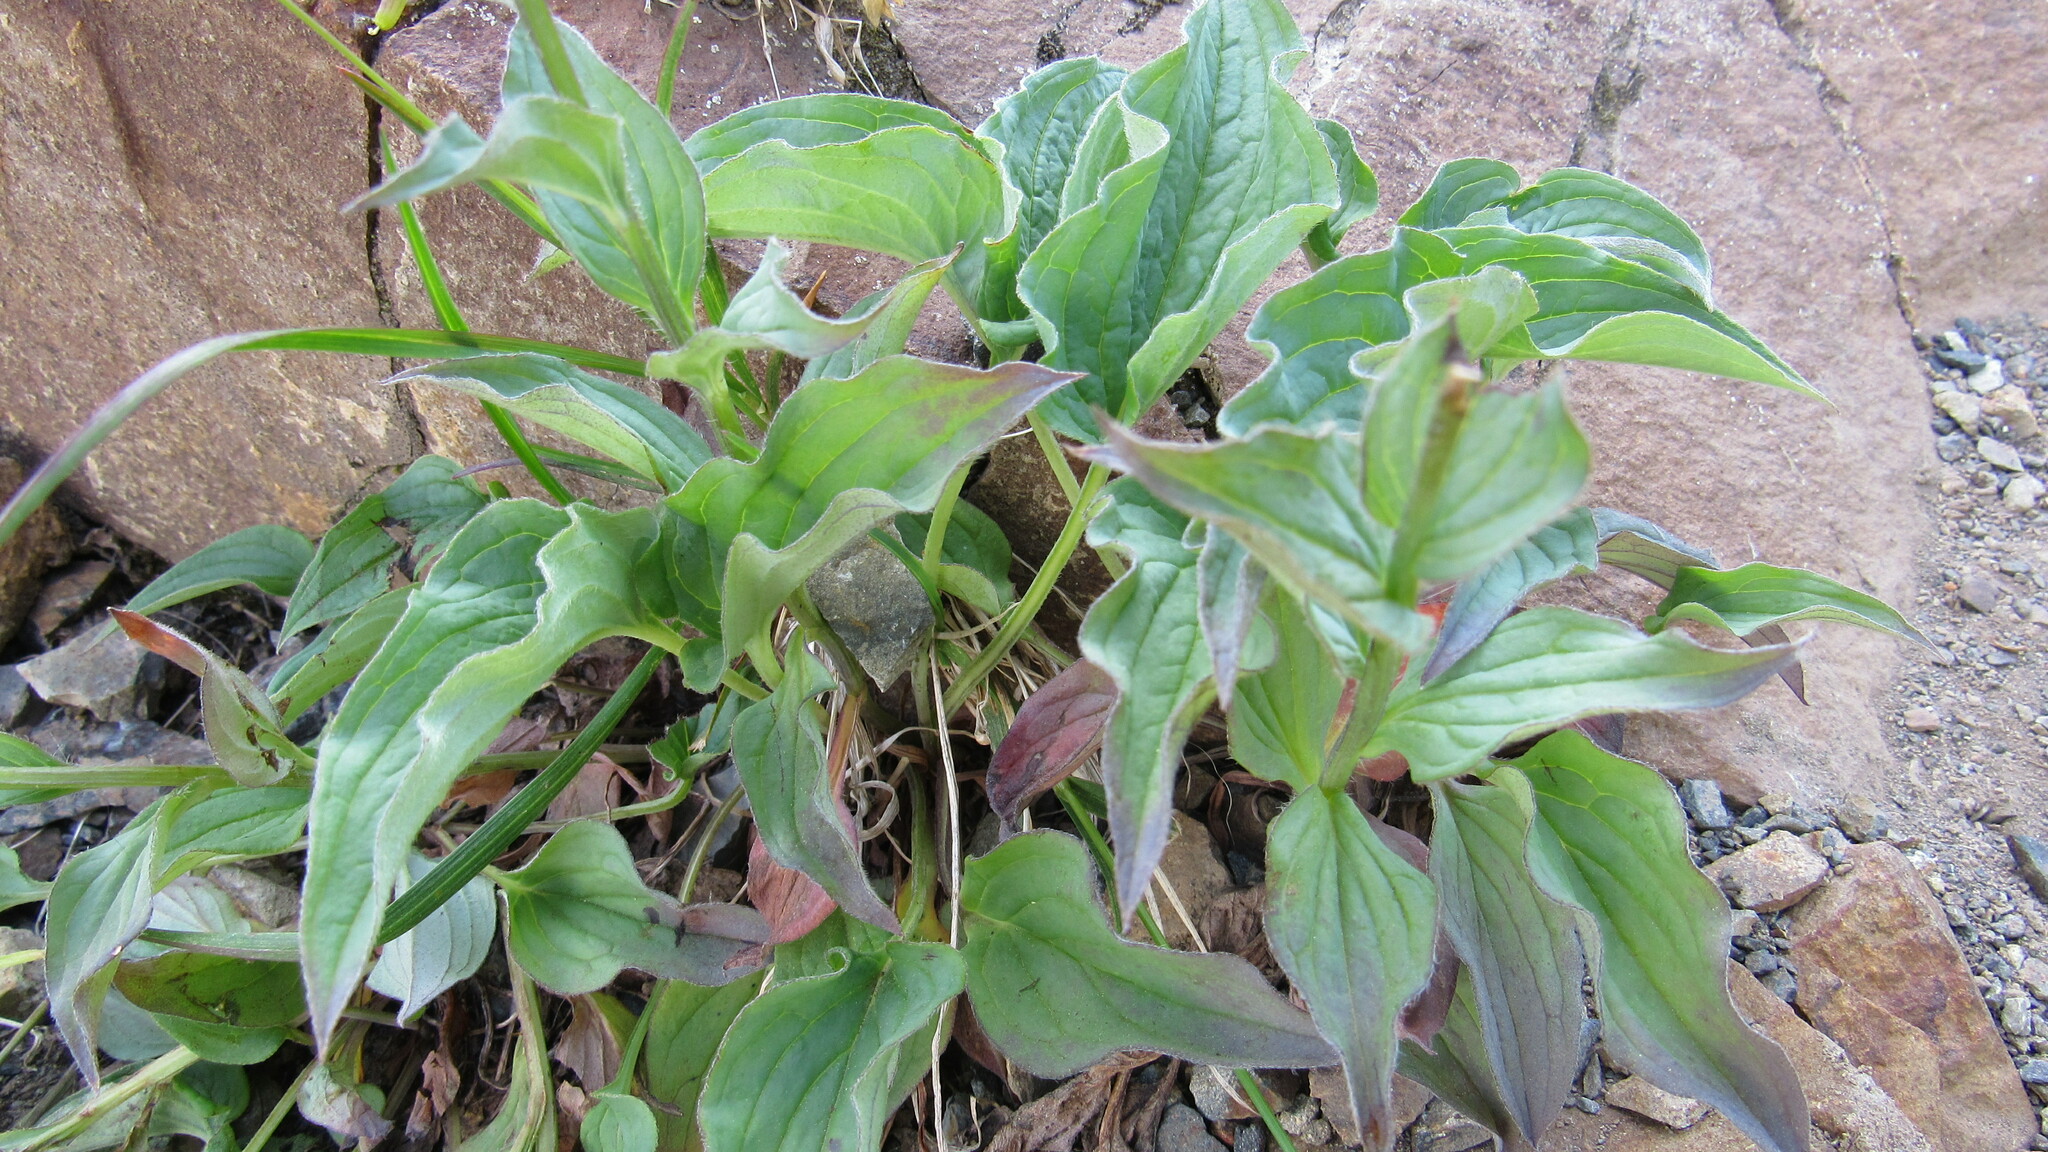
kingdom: Plantae
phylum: Tracheophyta
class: Magnoliopsida
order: Boraginales
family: Boraginaceae
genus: Mertensia
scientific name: Mertensia kamczatica
